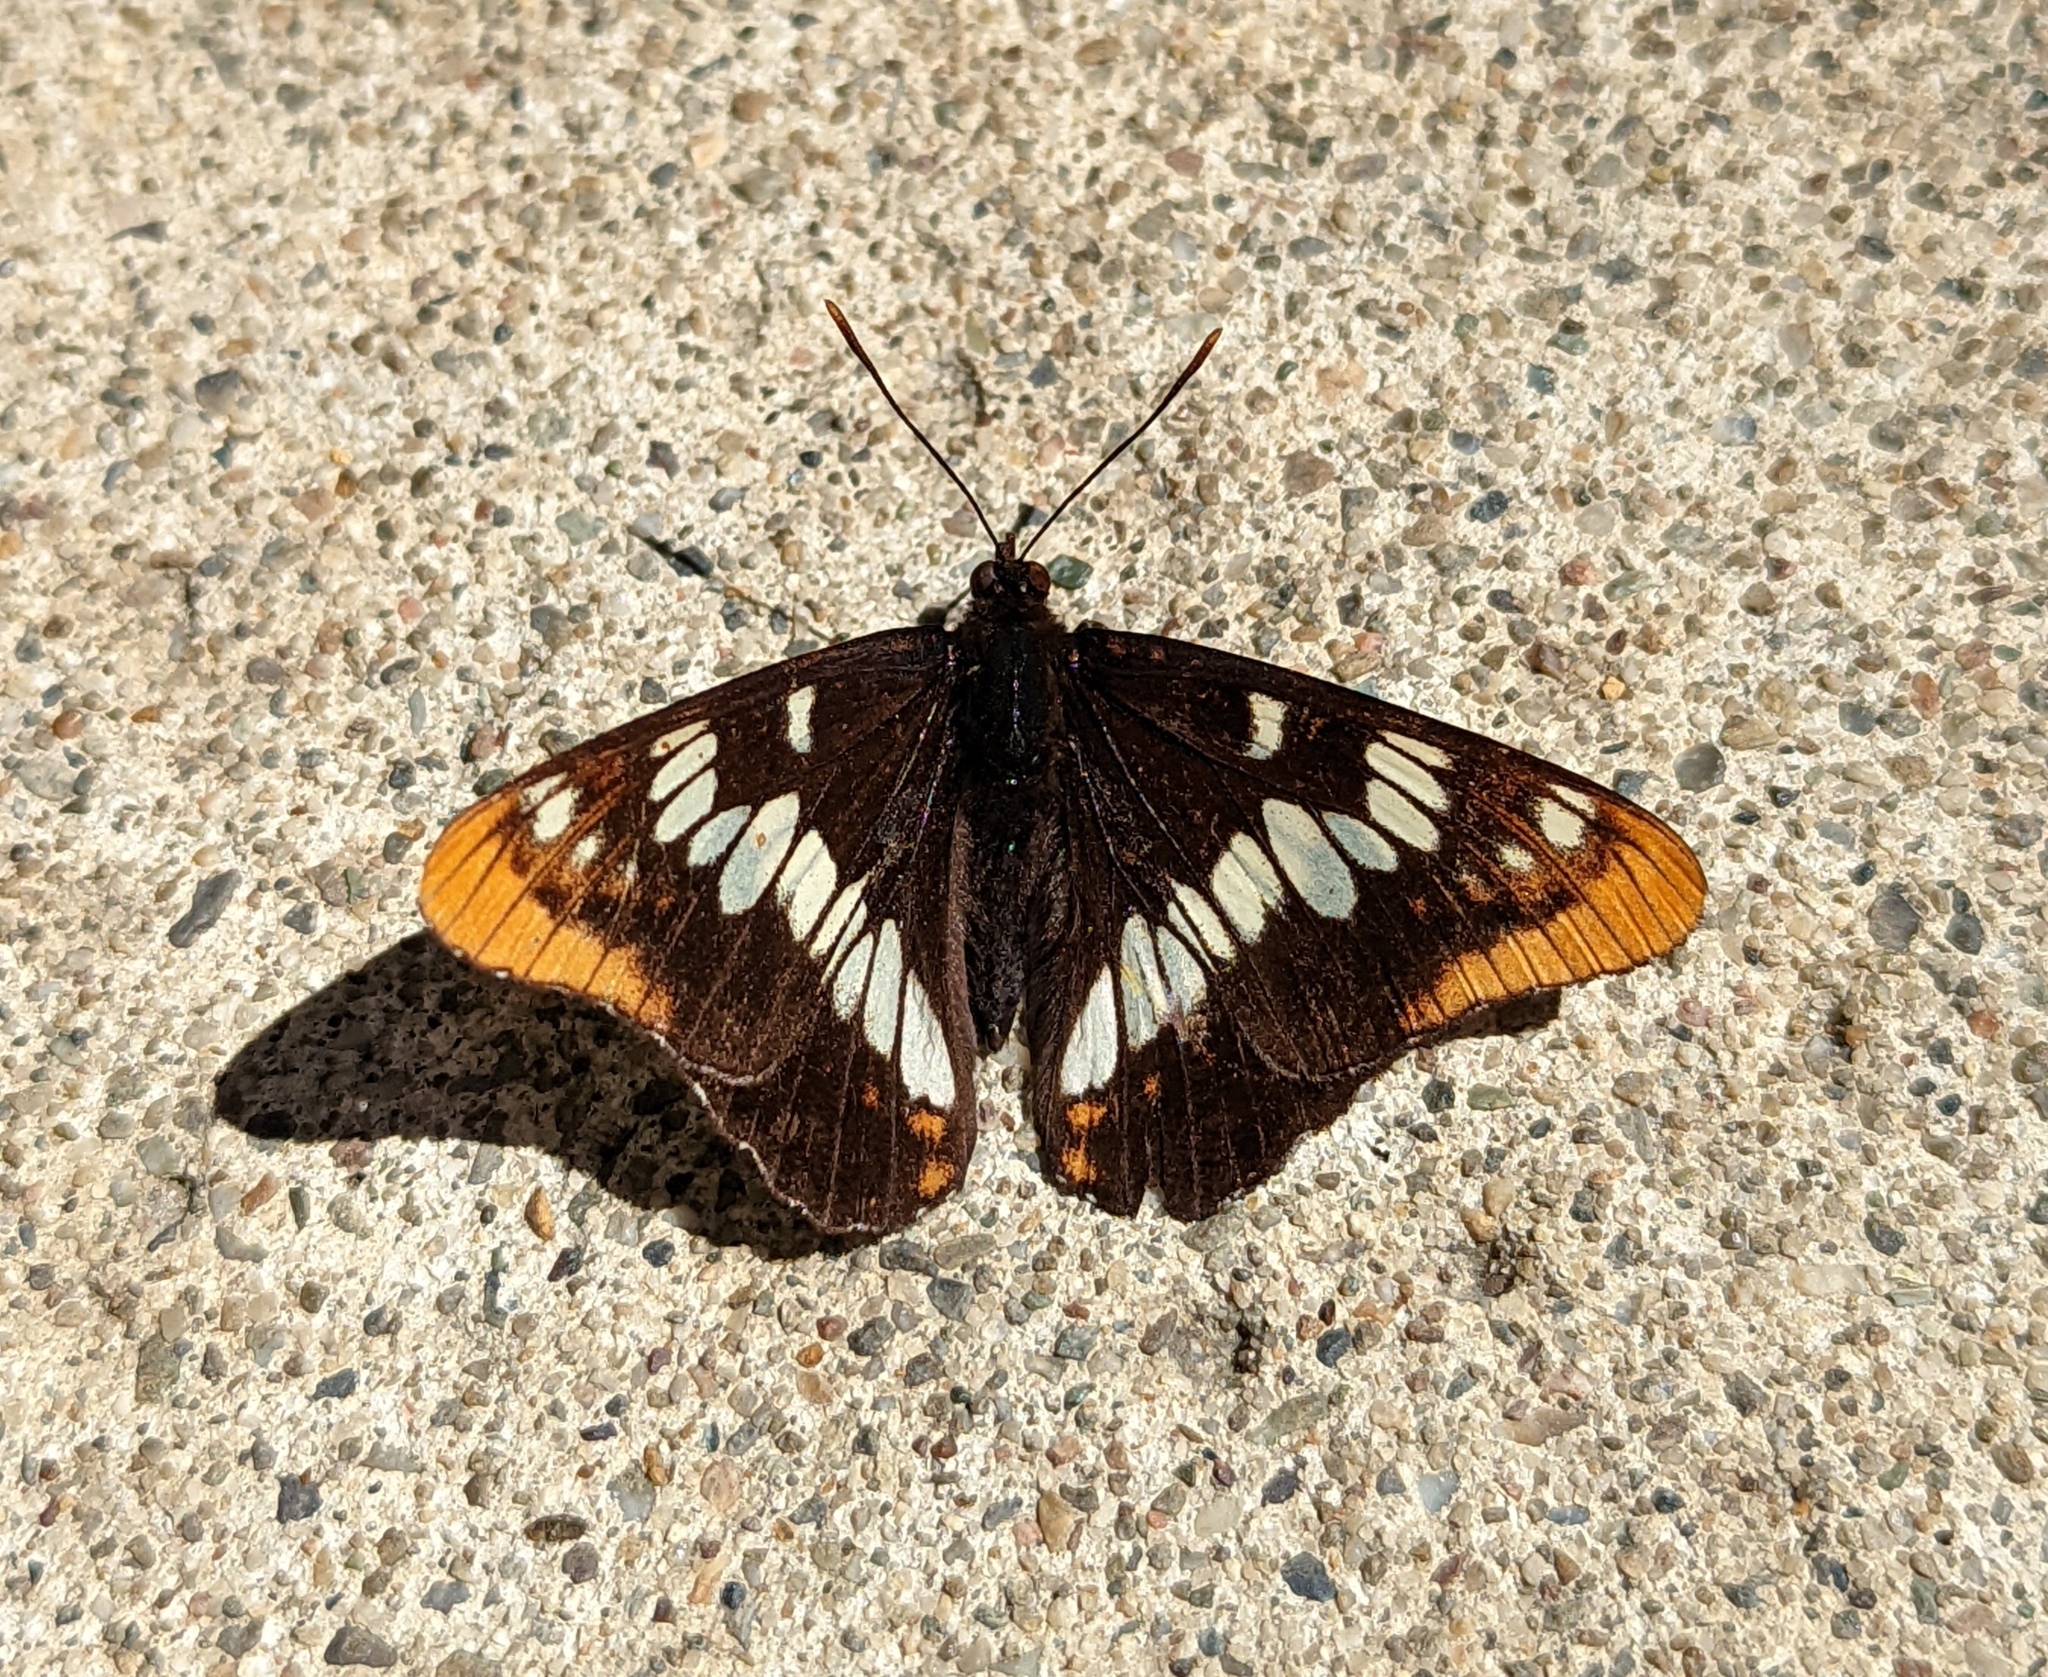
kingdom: Animalia
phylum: Arthropoda
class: Insecta
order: Lepidoptera
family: Nymphalidae
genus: Limenitis
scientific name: Limenitis lorquini
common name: Lorquin's admiral
